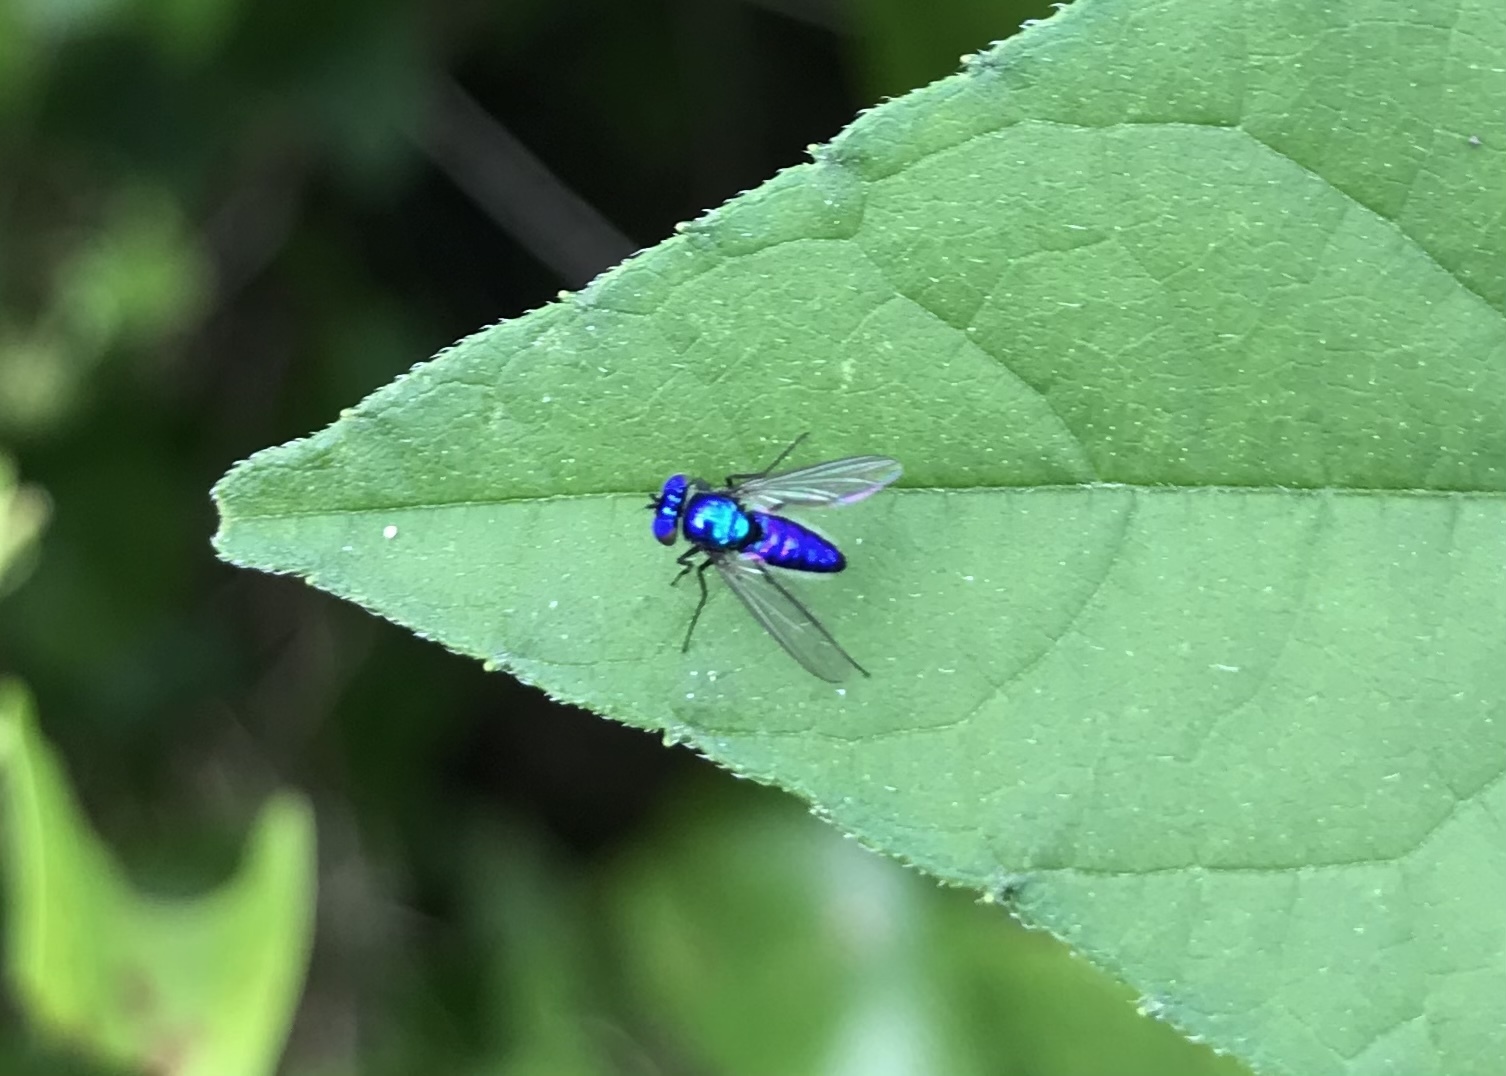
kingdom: Animalia
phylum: Arthropoda
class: Insecta
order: Diptera
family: Dolichopodidae
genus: Condylostylus
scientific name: Condylostylus mundus
